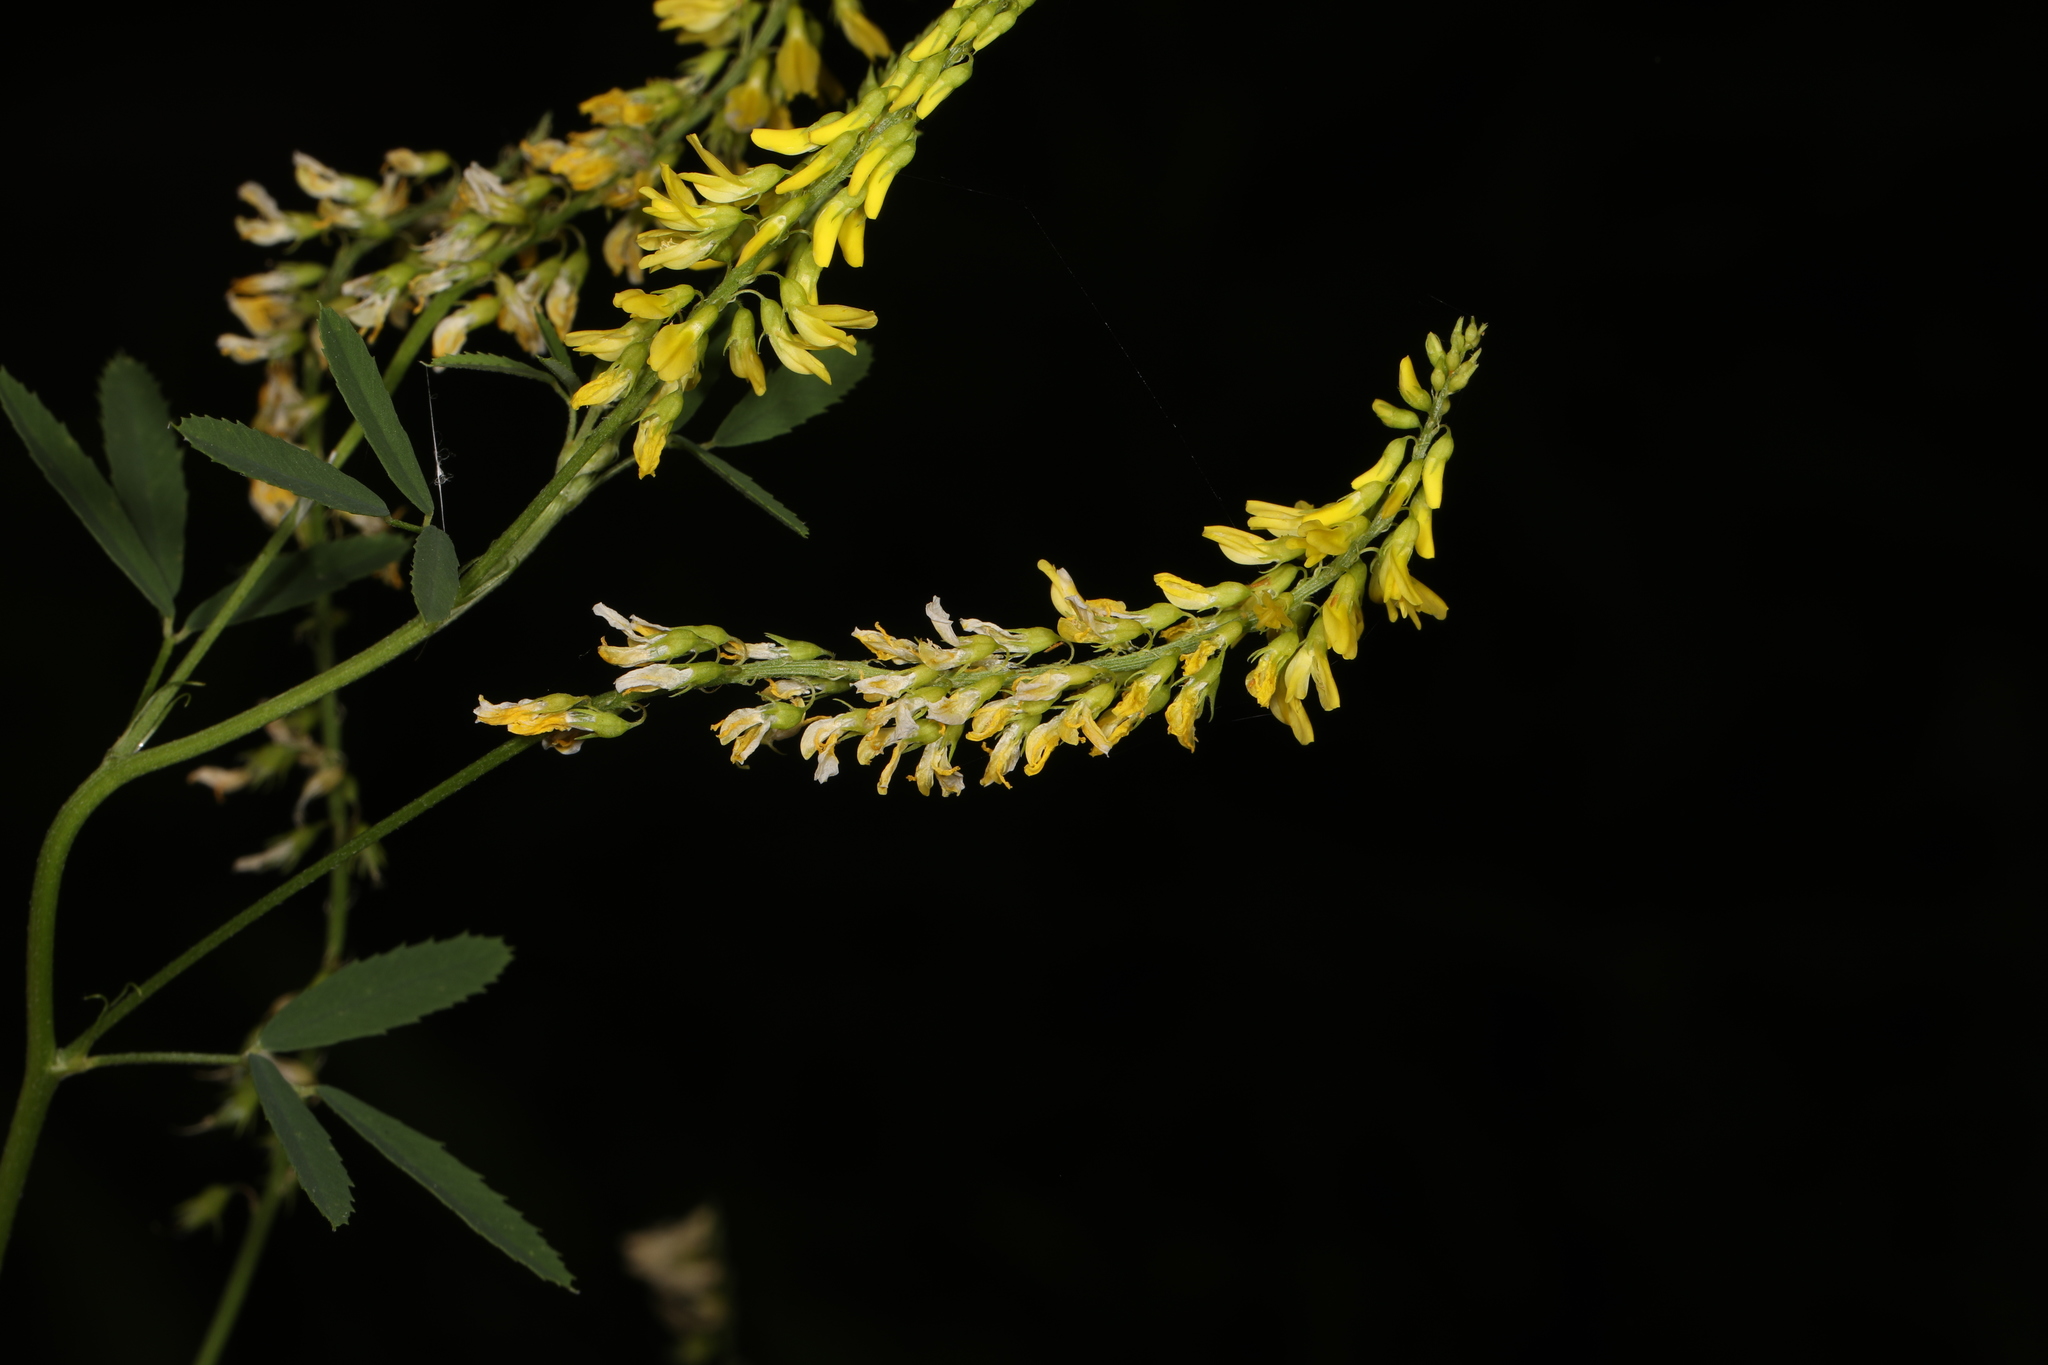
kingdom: Plantae
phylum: Tracheophyta
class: Magnoliopsida
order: Fabales
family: Fabaceae
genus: Melilotus
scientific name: Melilotus officinalis
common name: Sweetclover
